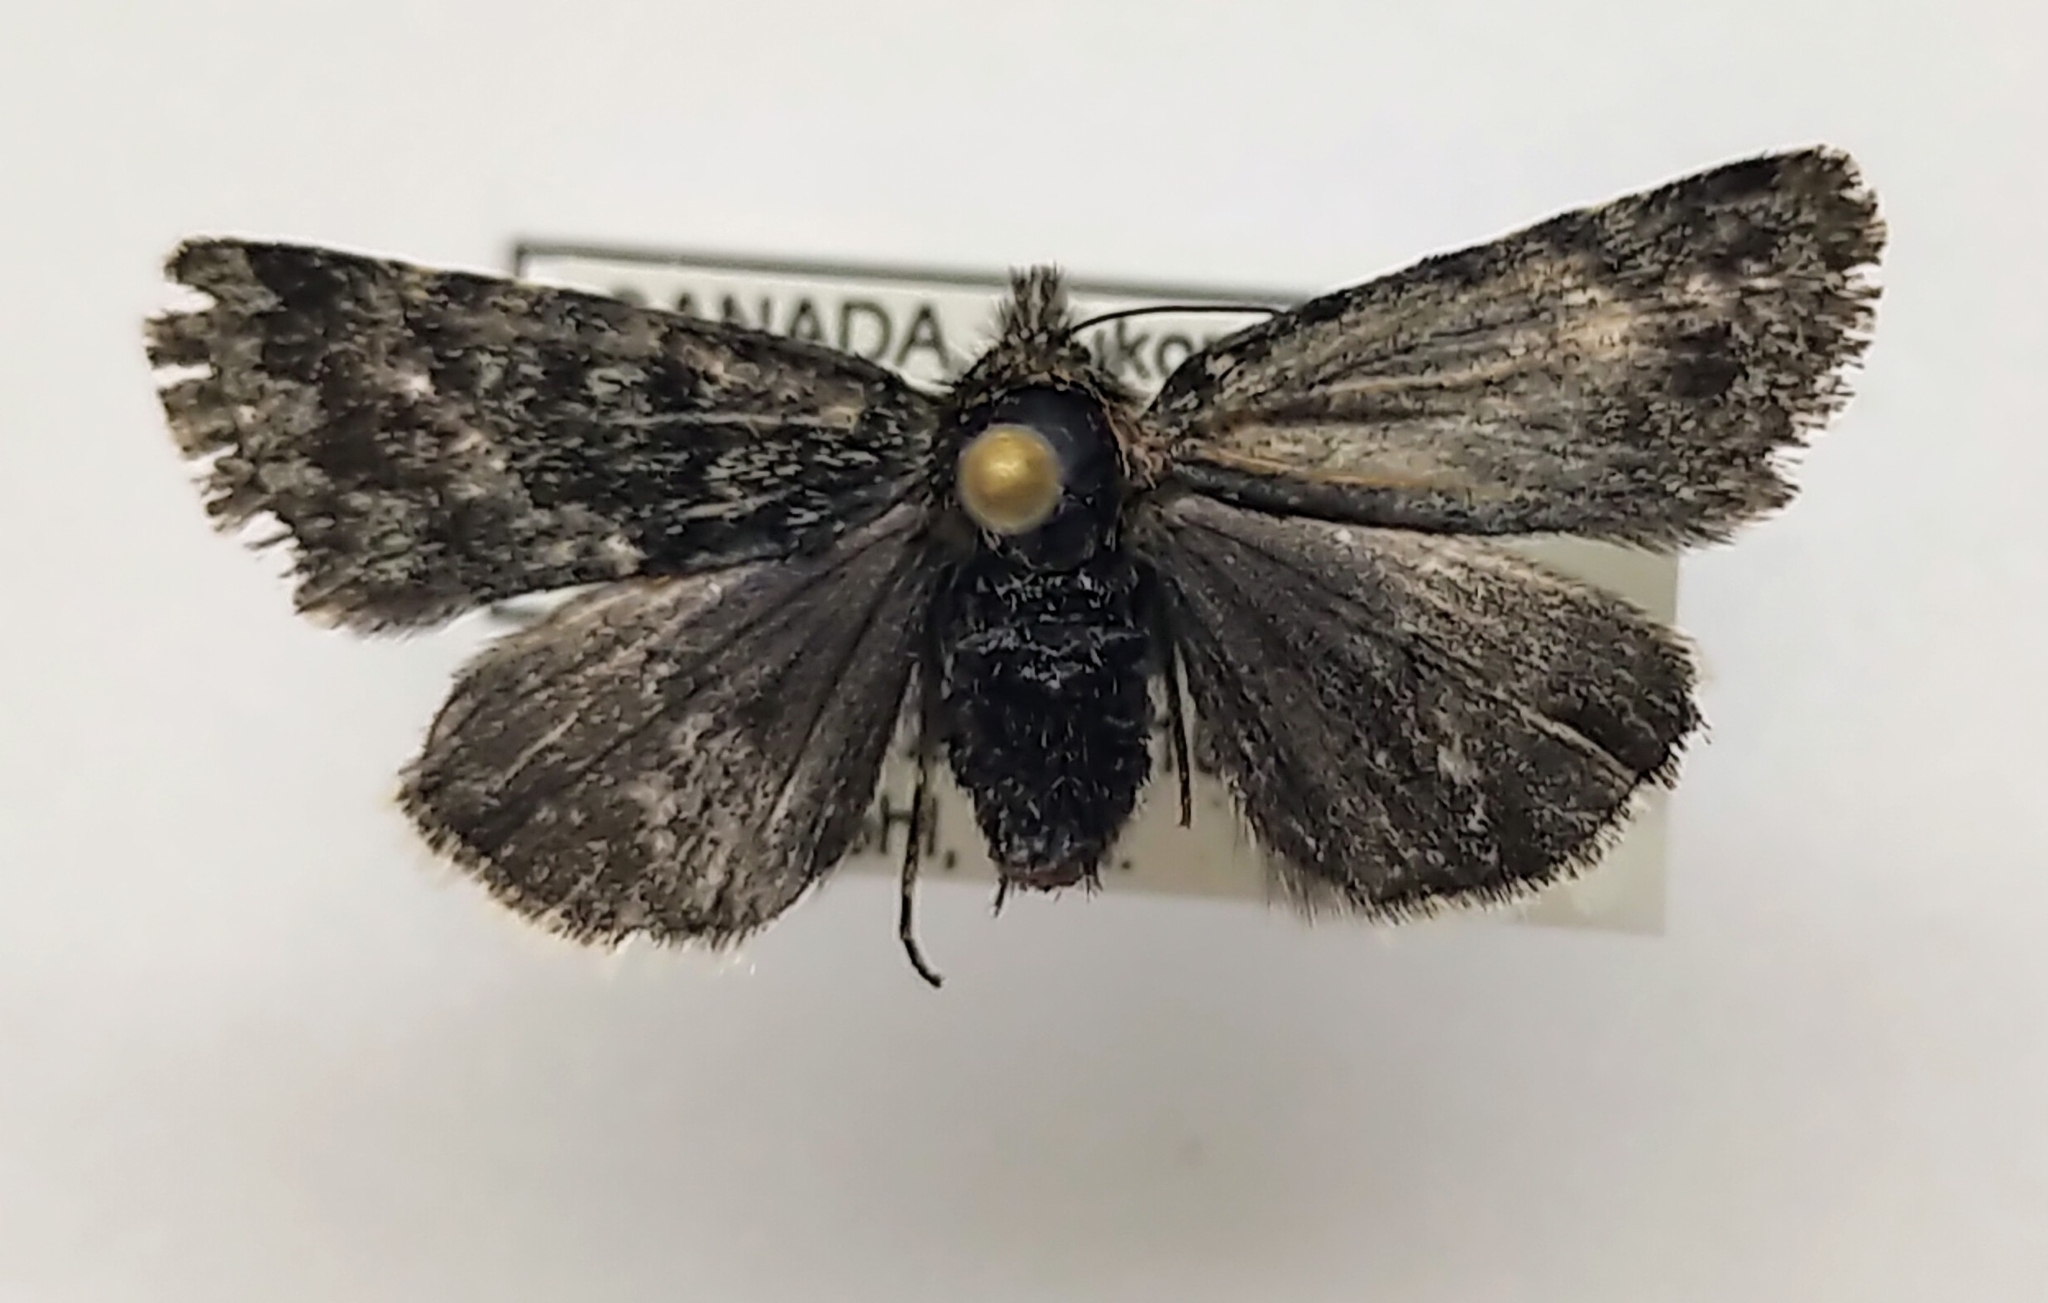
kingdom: Animalia
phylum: Arthropoda
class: Insecta
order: Lepidoptera
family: Noctuidae
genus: Sympistis
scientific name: Sympistis nigrita
